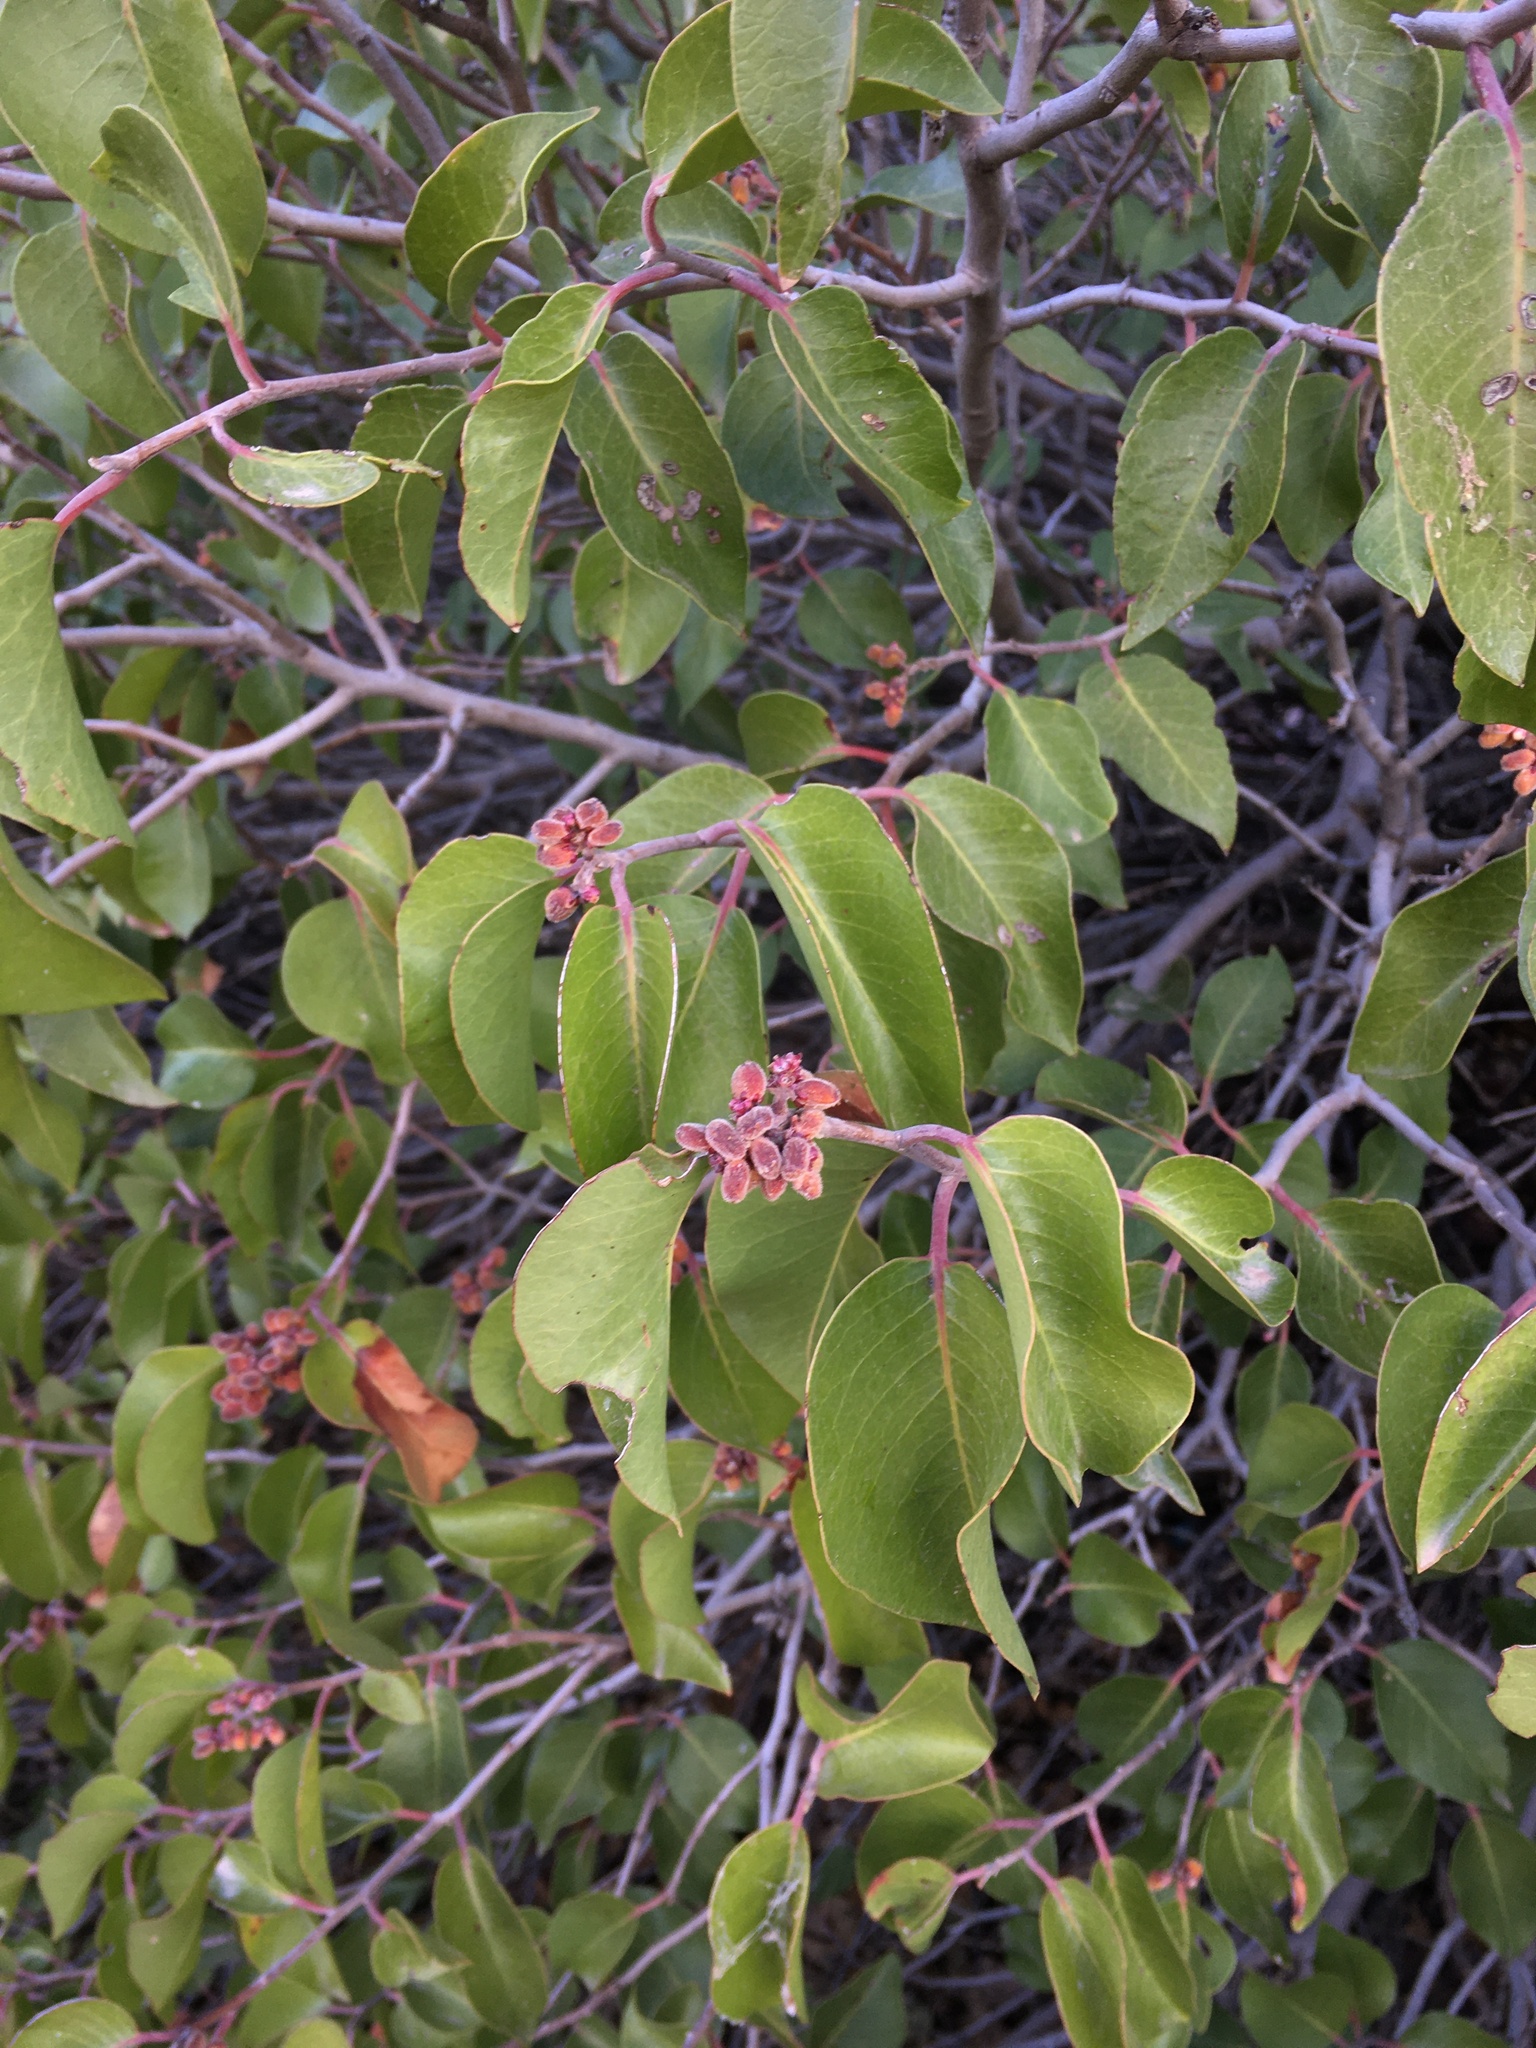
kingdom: Plantae
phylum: Tracheophyta
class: Magnoliopsida
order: Sapindales
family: Anacardiaceae
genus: Rhus
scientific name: Rhus ovata
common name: Sugar sumac
